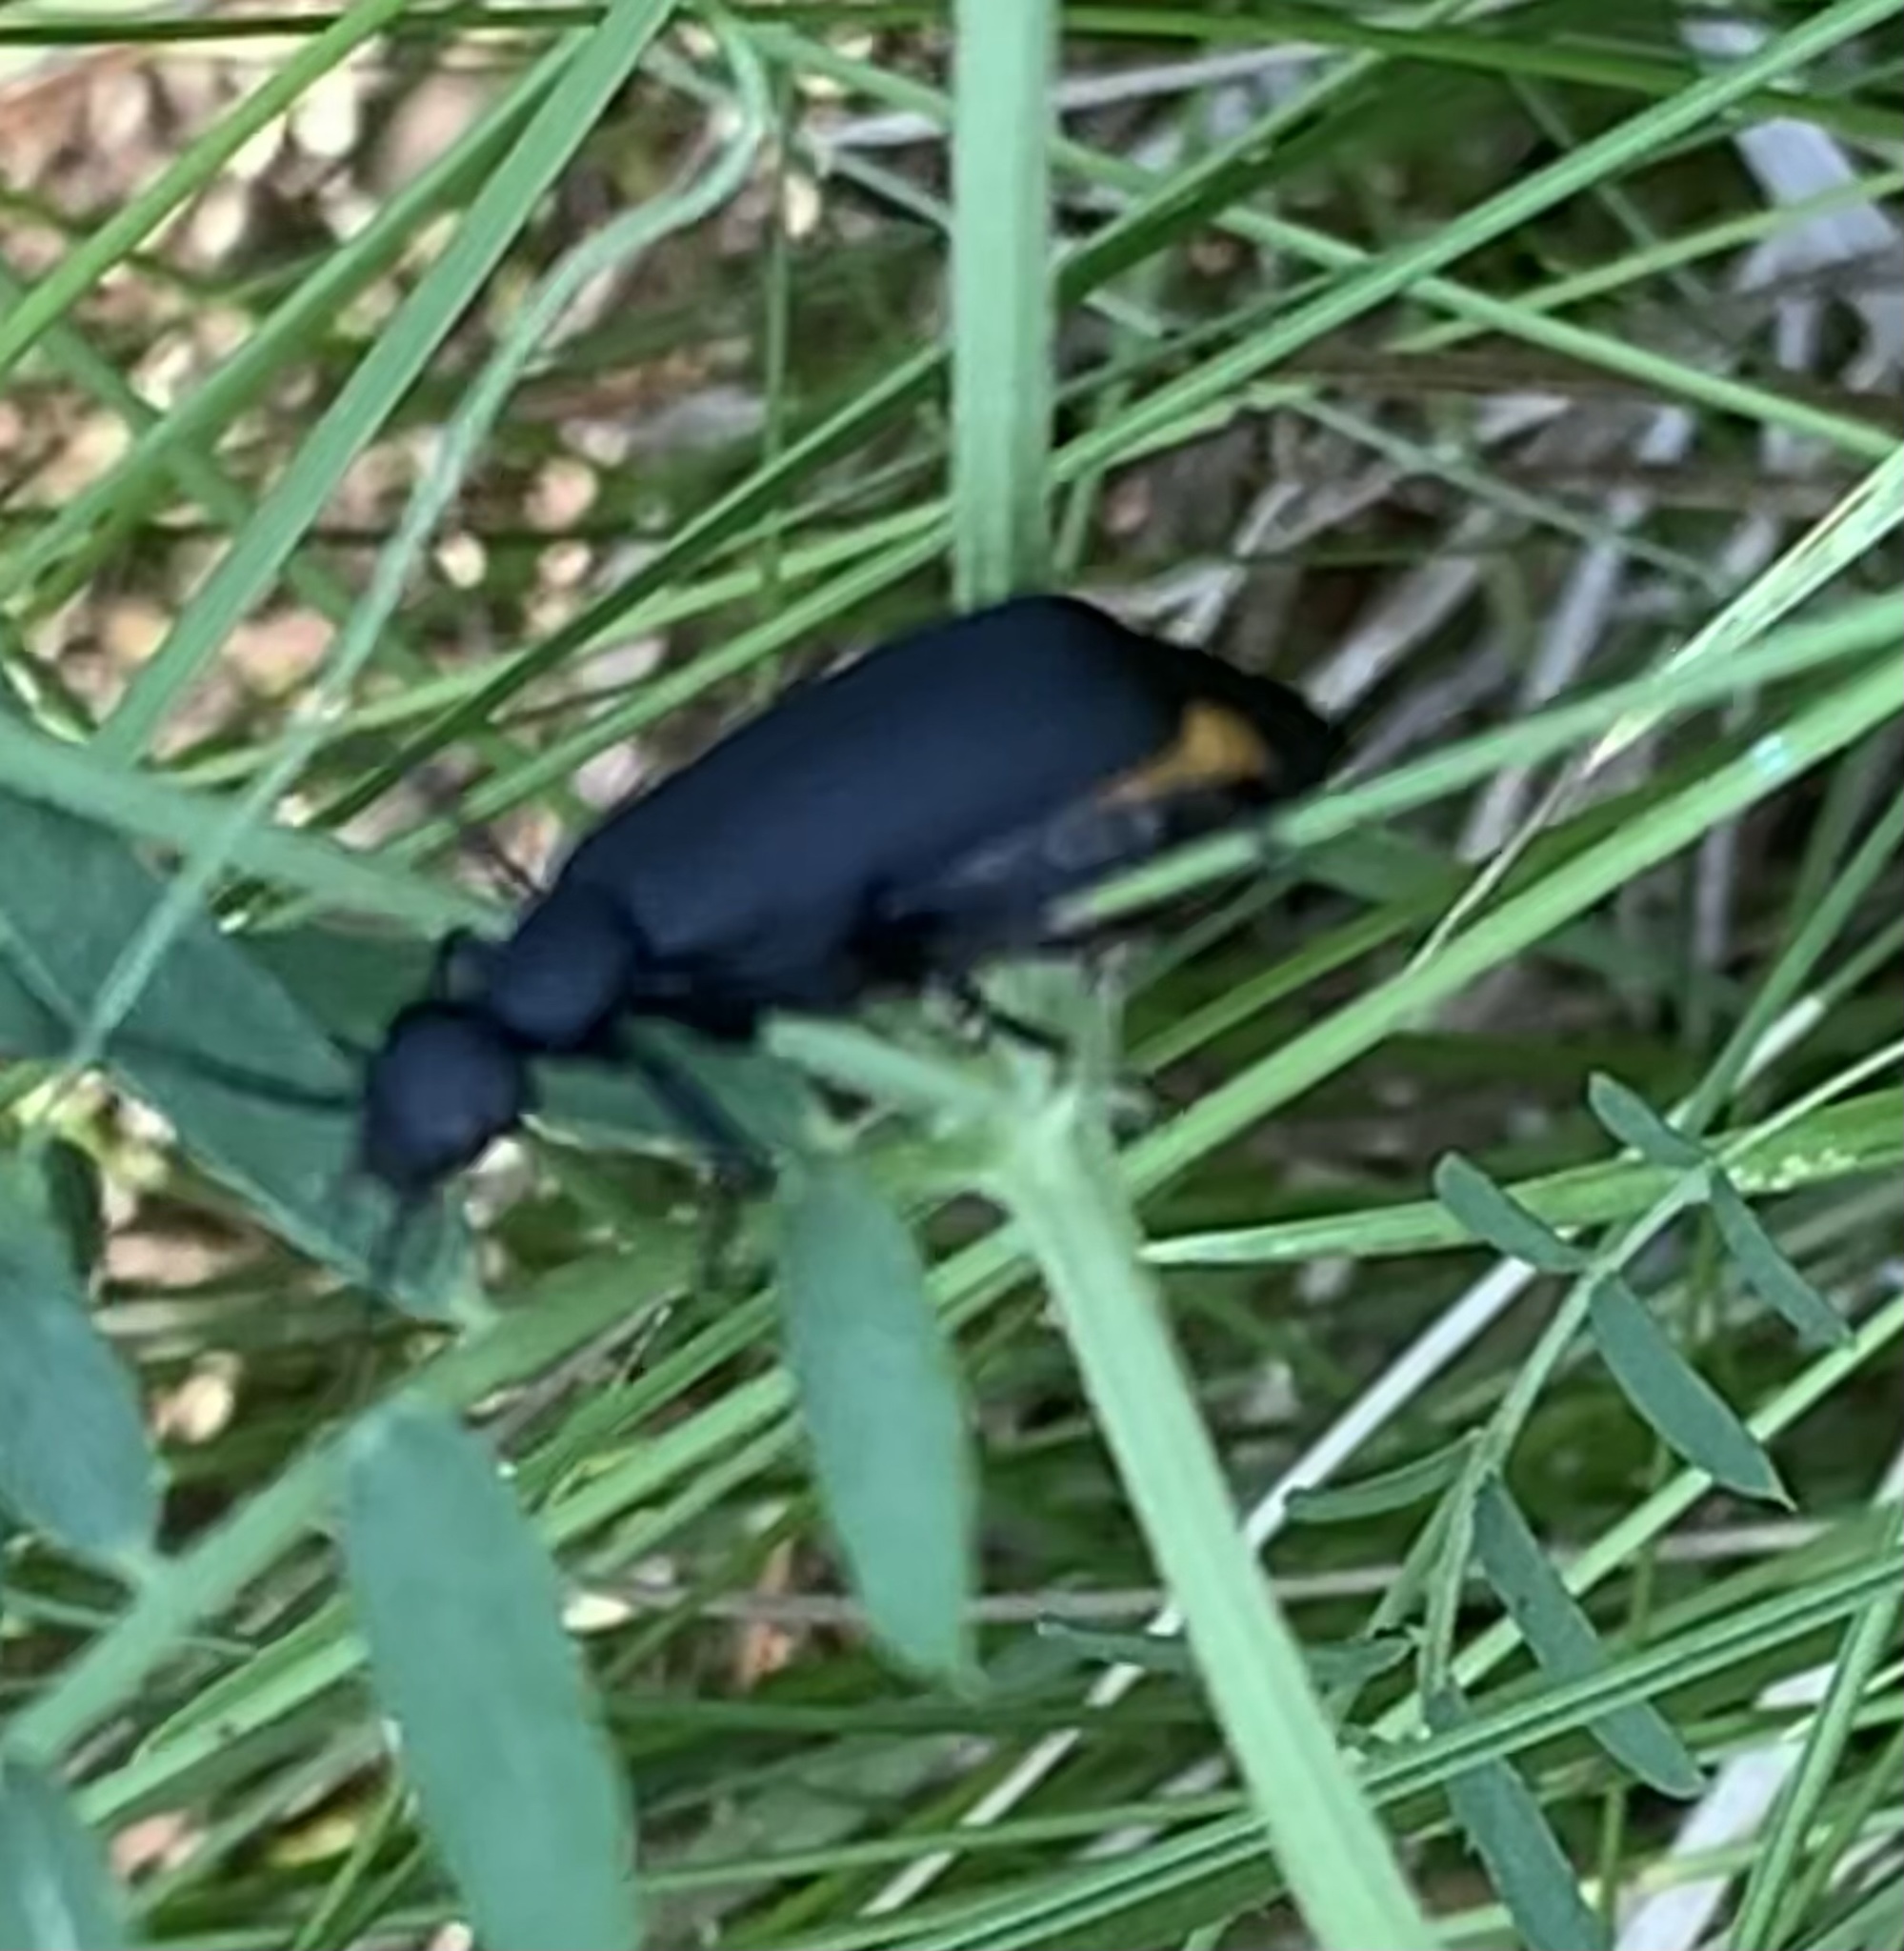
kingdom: Animalia
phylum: Arthropoda
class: Insecta
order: Coleoptera
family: Meloidae
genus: Epicauta
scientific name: Epicauta pensylvanica
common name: Black blister beetle
